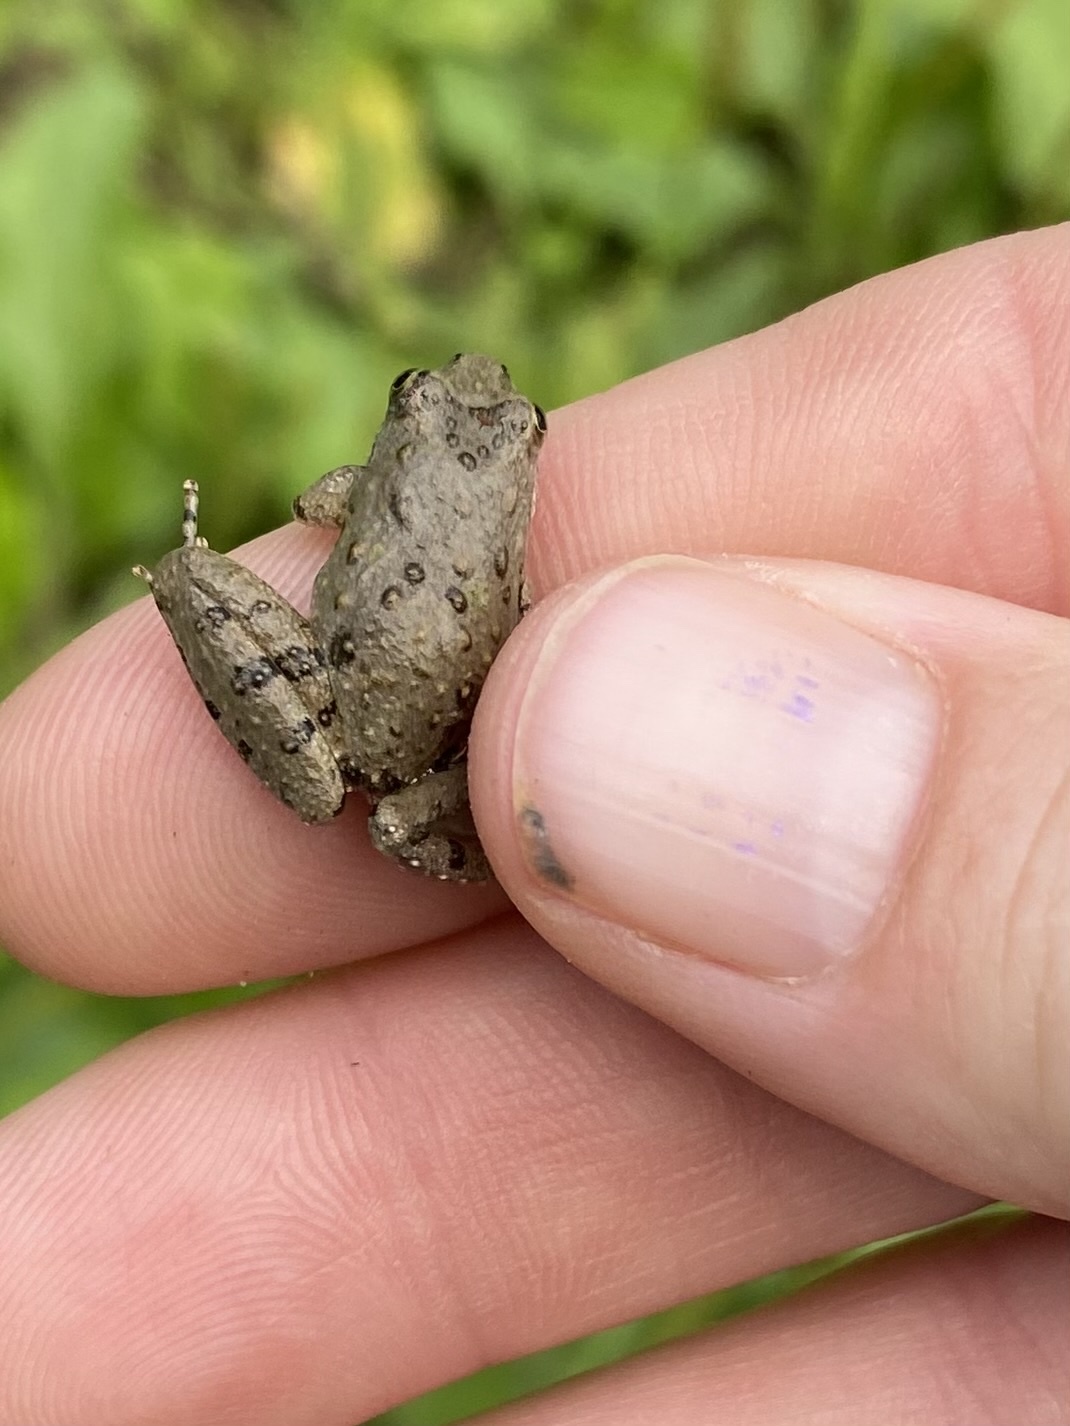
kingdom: Animalia
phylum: Chordata
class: Amphibia
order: Anura
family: Hylidae
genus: Acris
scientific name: Acris blanchardi
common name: Blanchard's cricket frog
